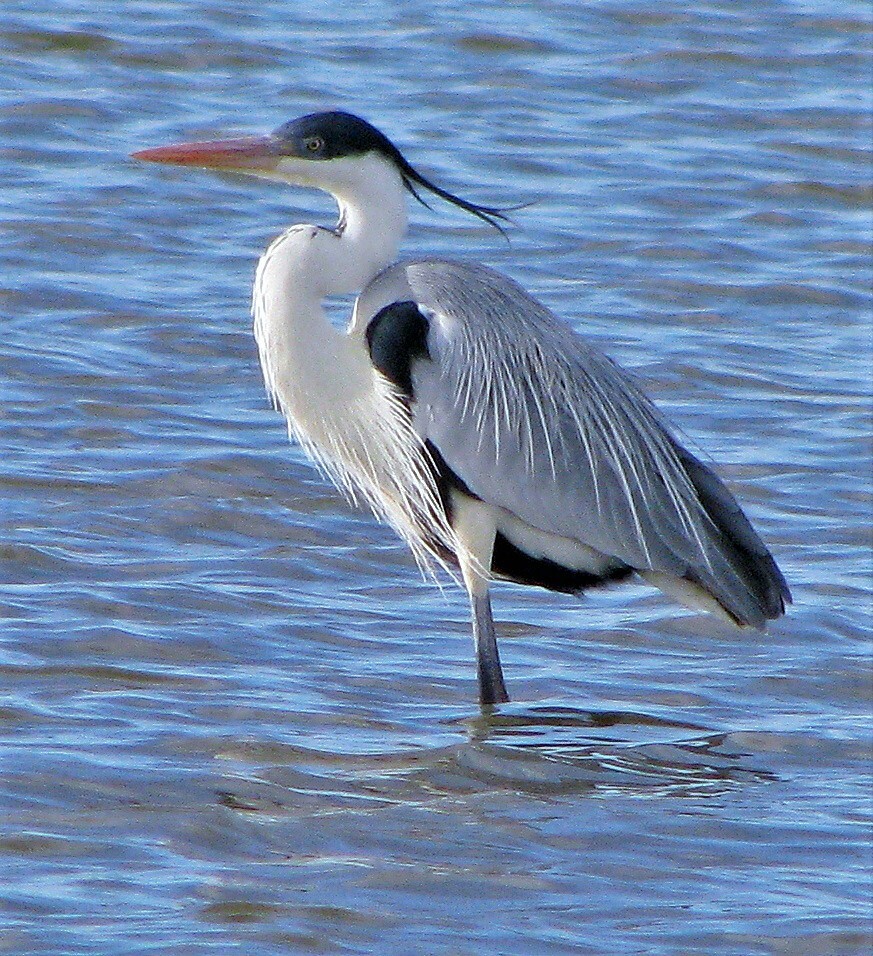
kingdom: Animalia
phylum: Chordata
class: Aves
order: Pelecaniformes
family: Ardeidae
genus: Ardea
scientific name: Ardea cocoi
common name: Cocoi heron
